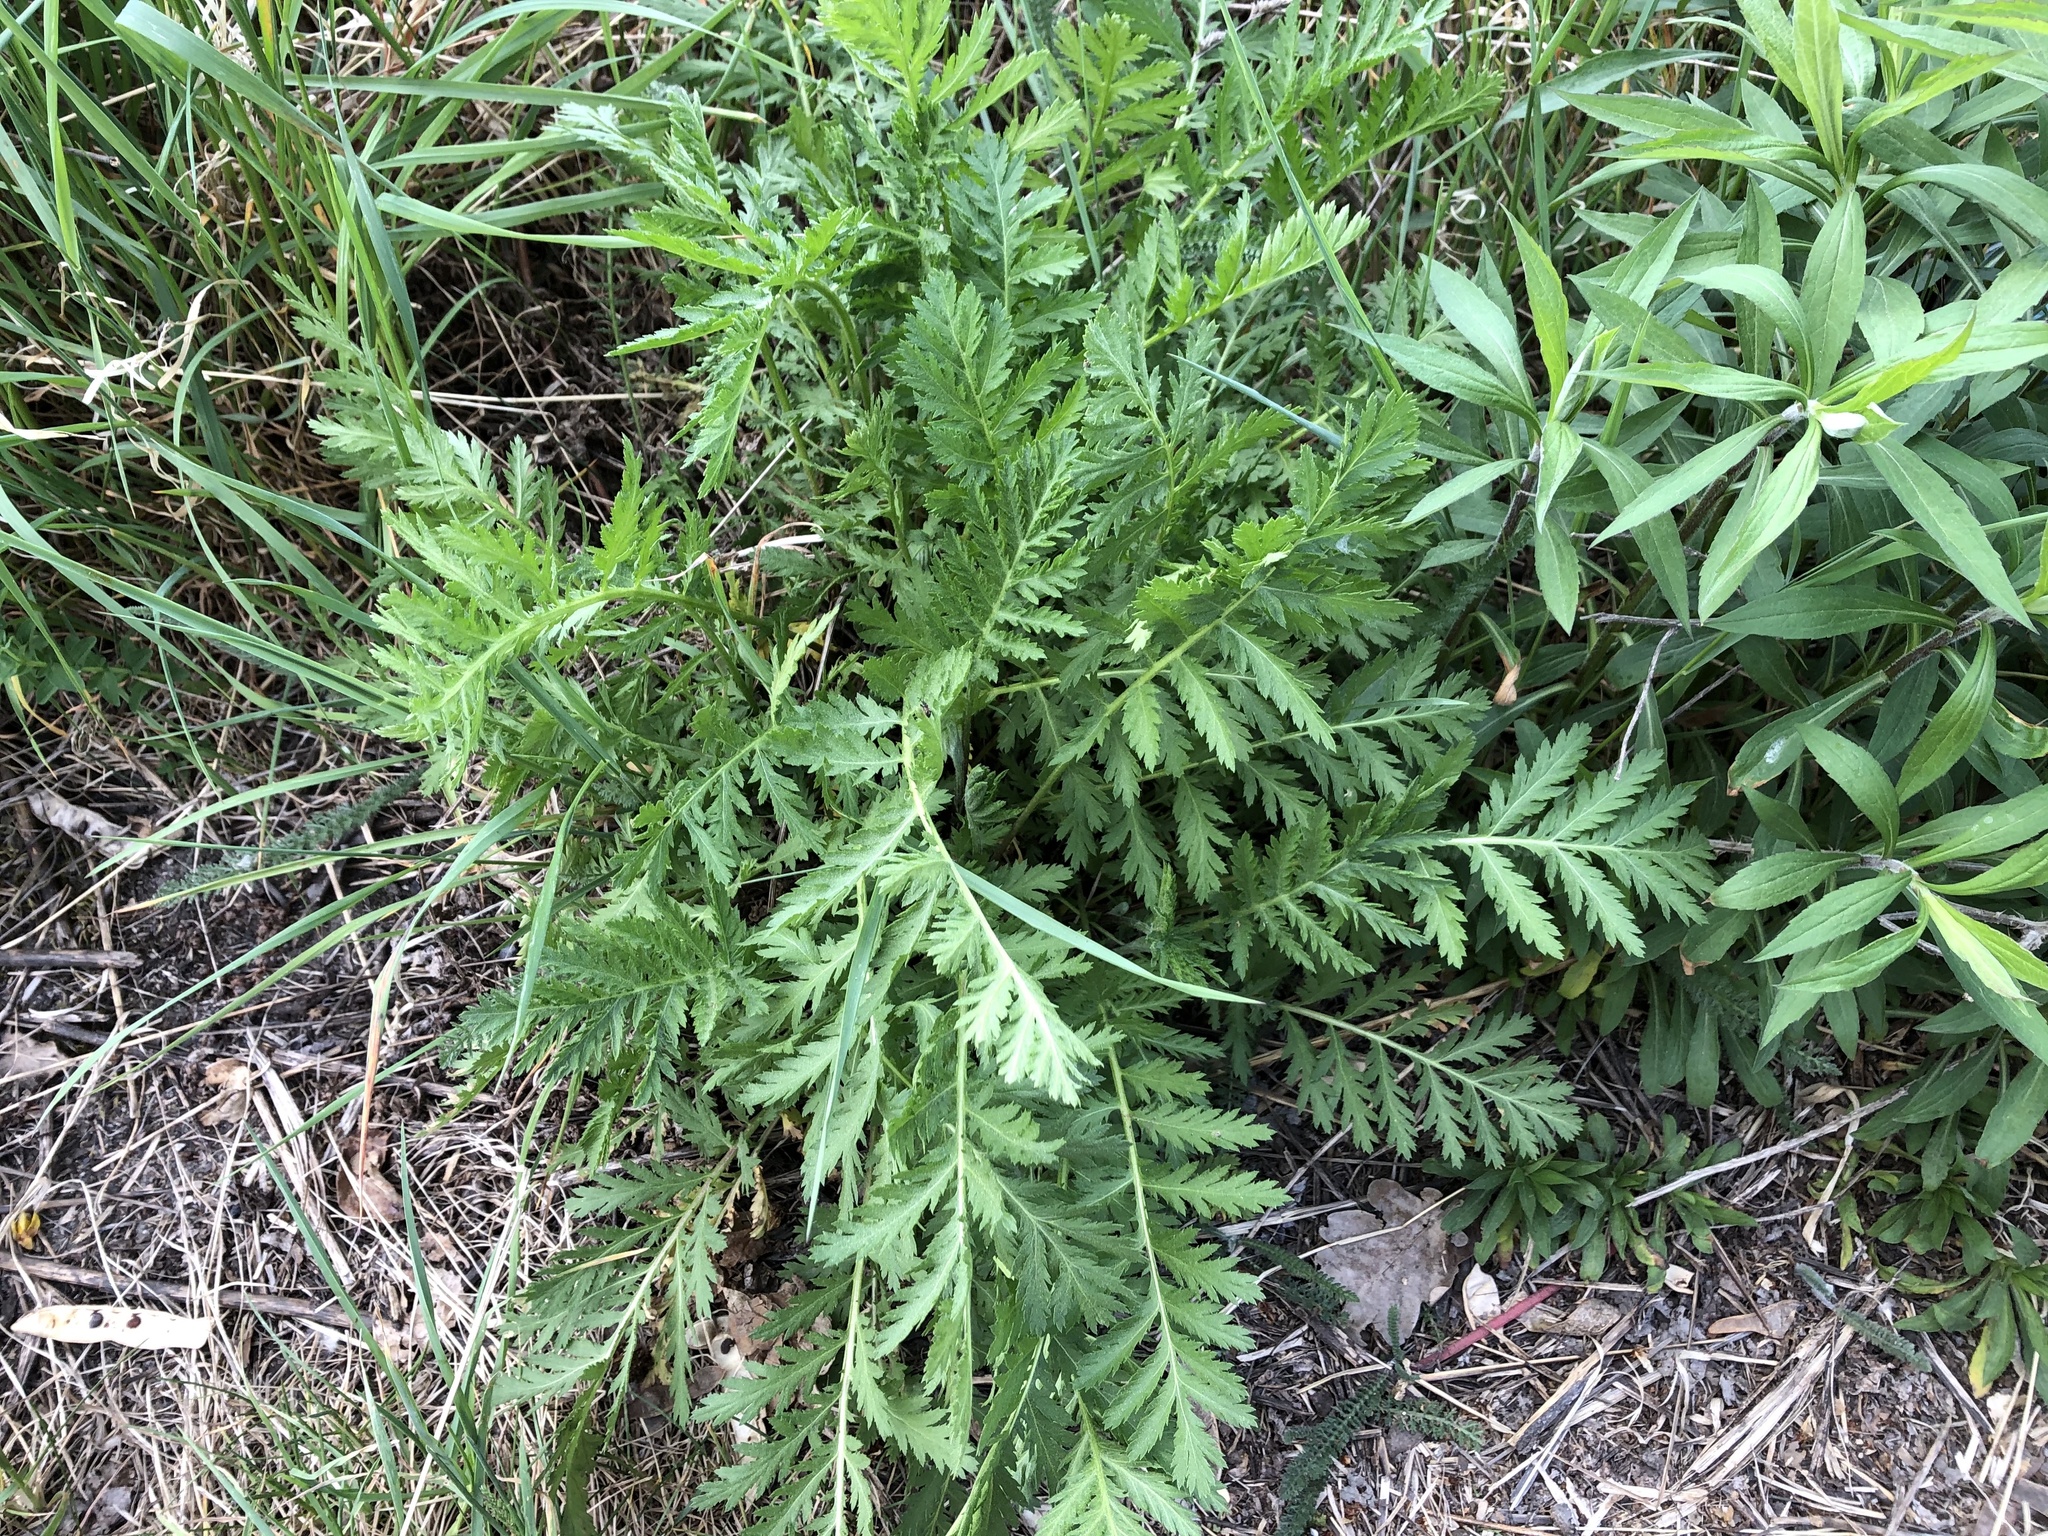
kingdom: Plantae
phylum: Tracheophyta
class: Magnoliopsida
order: Asterales
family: Asteraceae
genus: Tanacetum
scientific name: Tanacetum vulgare
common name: Common tansy
